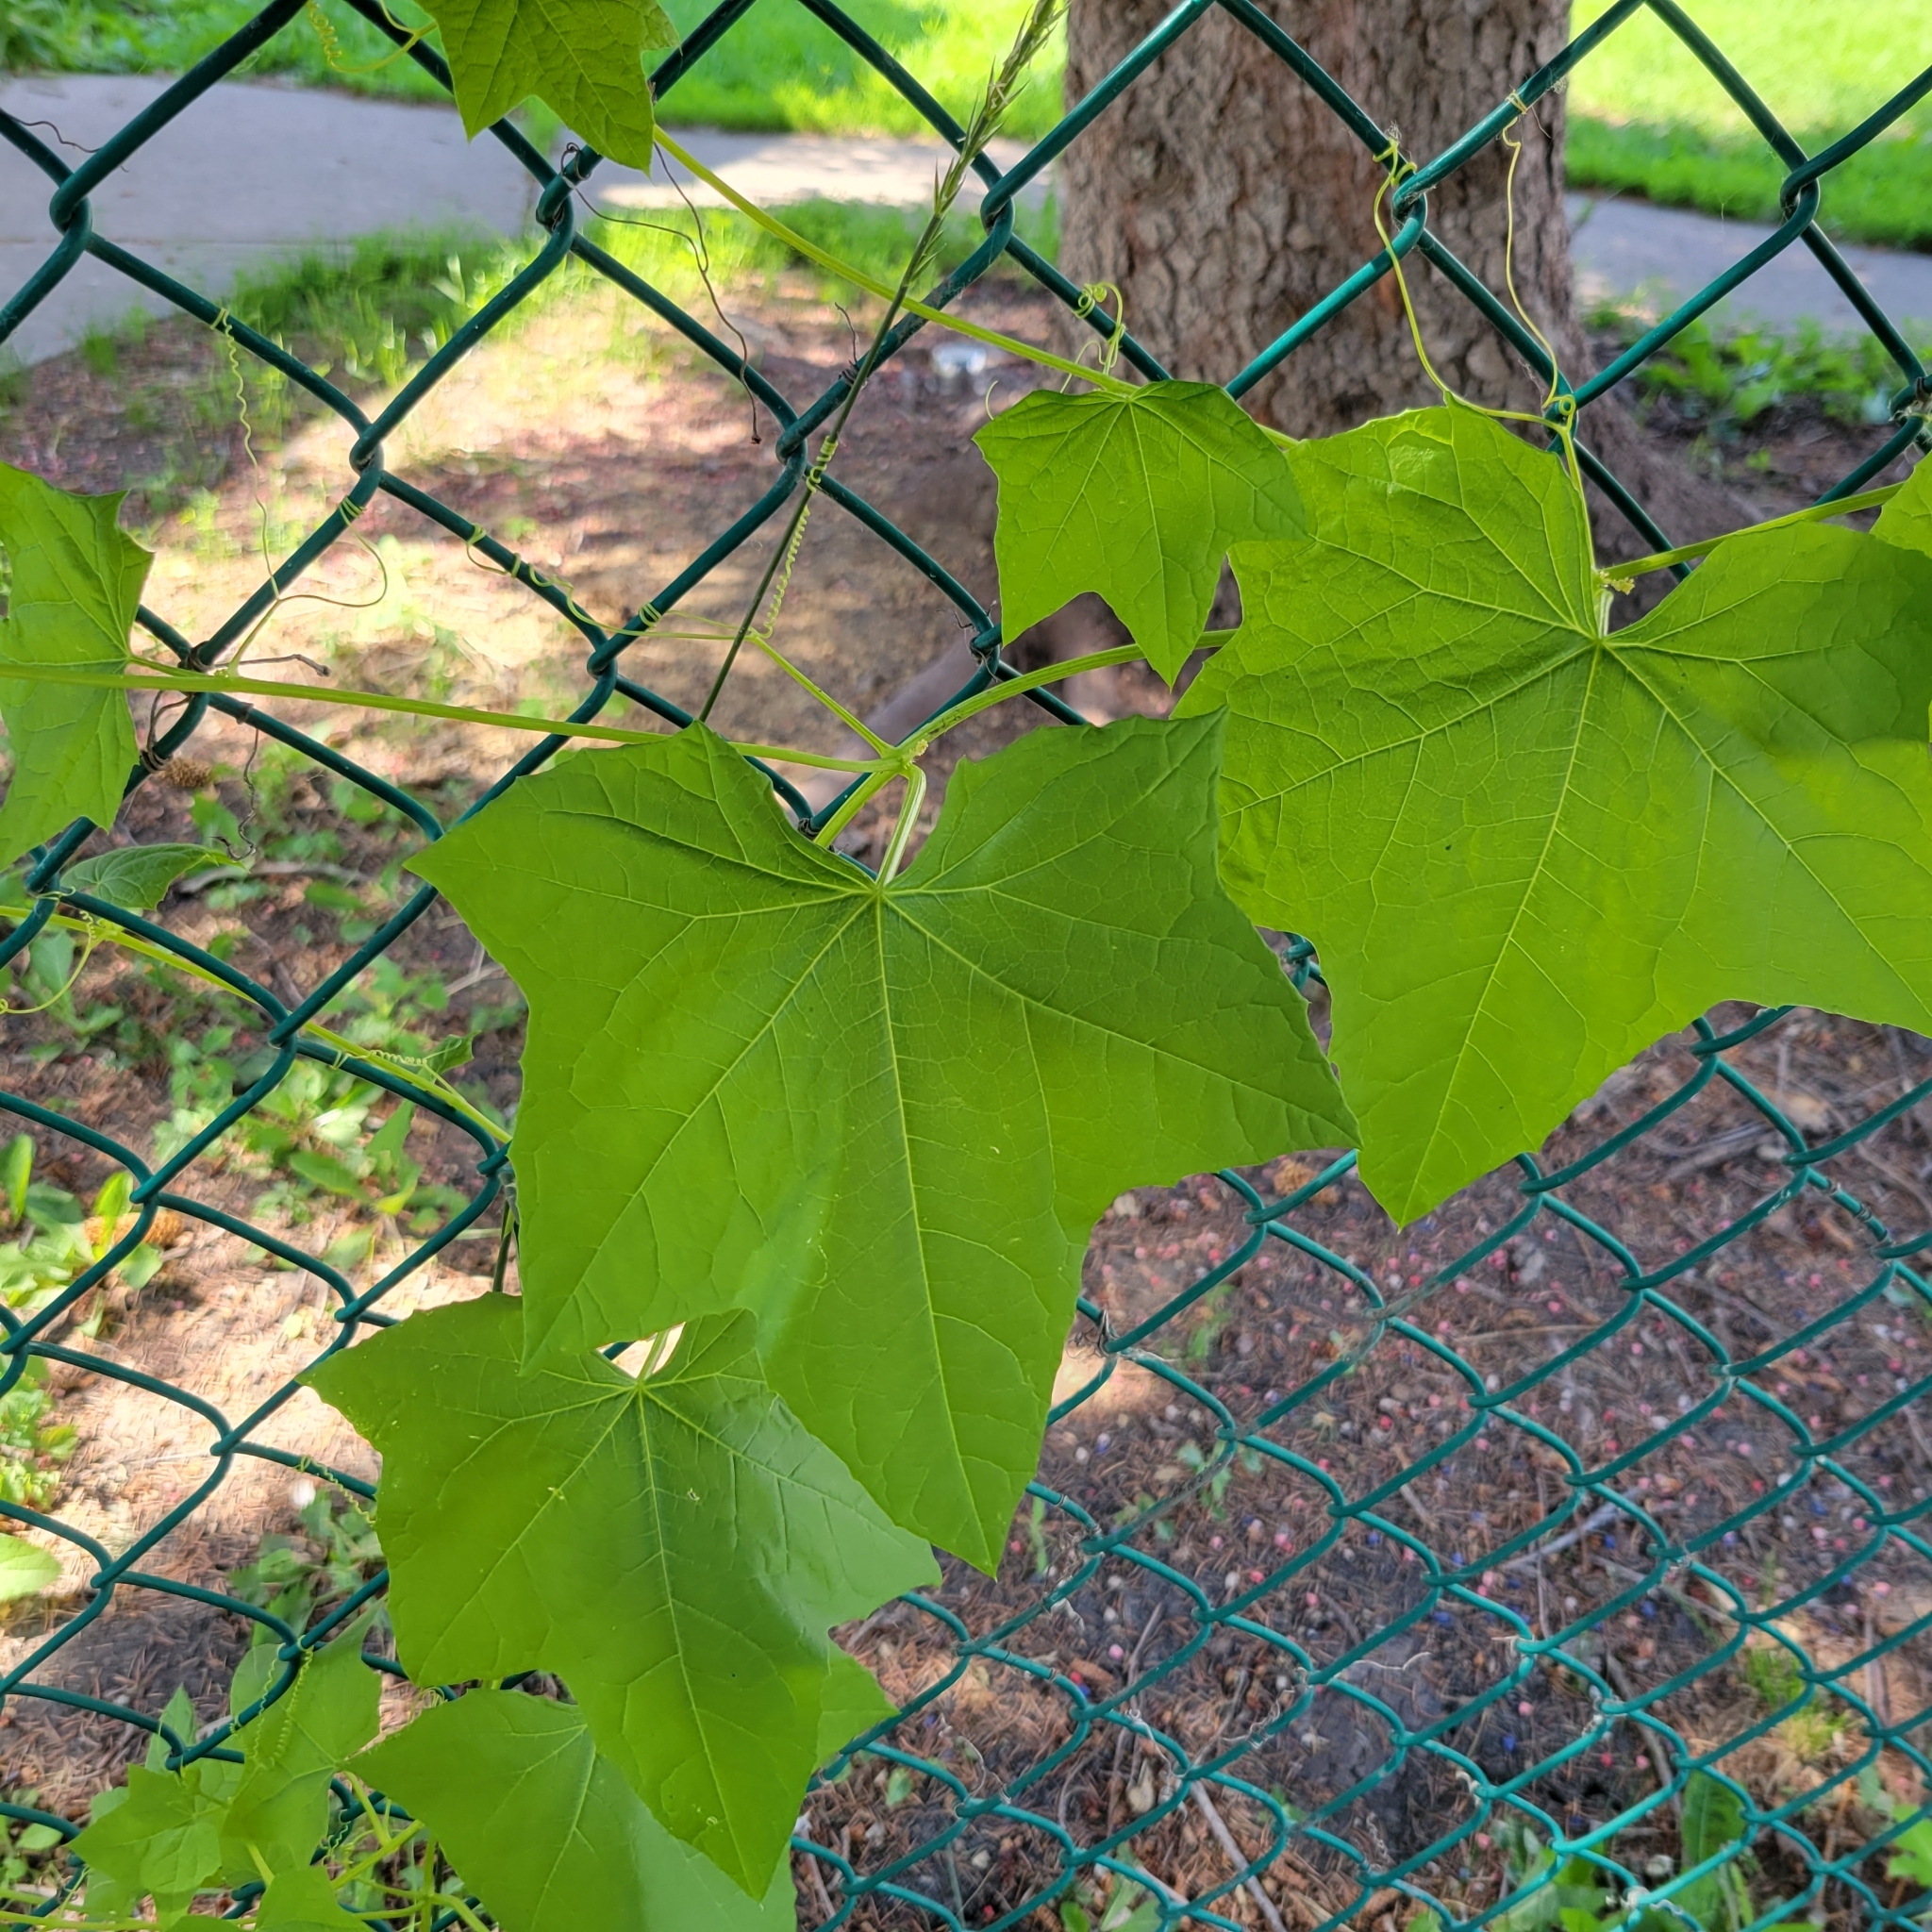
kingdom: Plantae
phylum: Tracheophyta
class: Magnoliopsida
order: Cucurbitales
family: Cucurbitaceae
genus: Echinocystis
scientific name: Echinocystis lobata
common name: Wild cucumber
